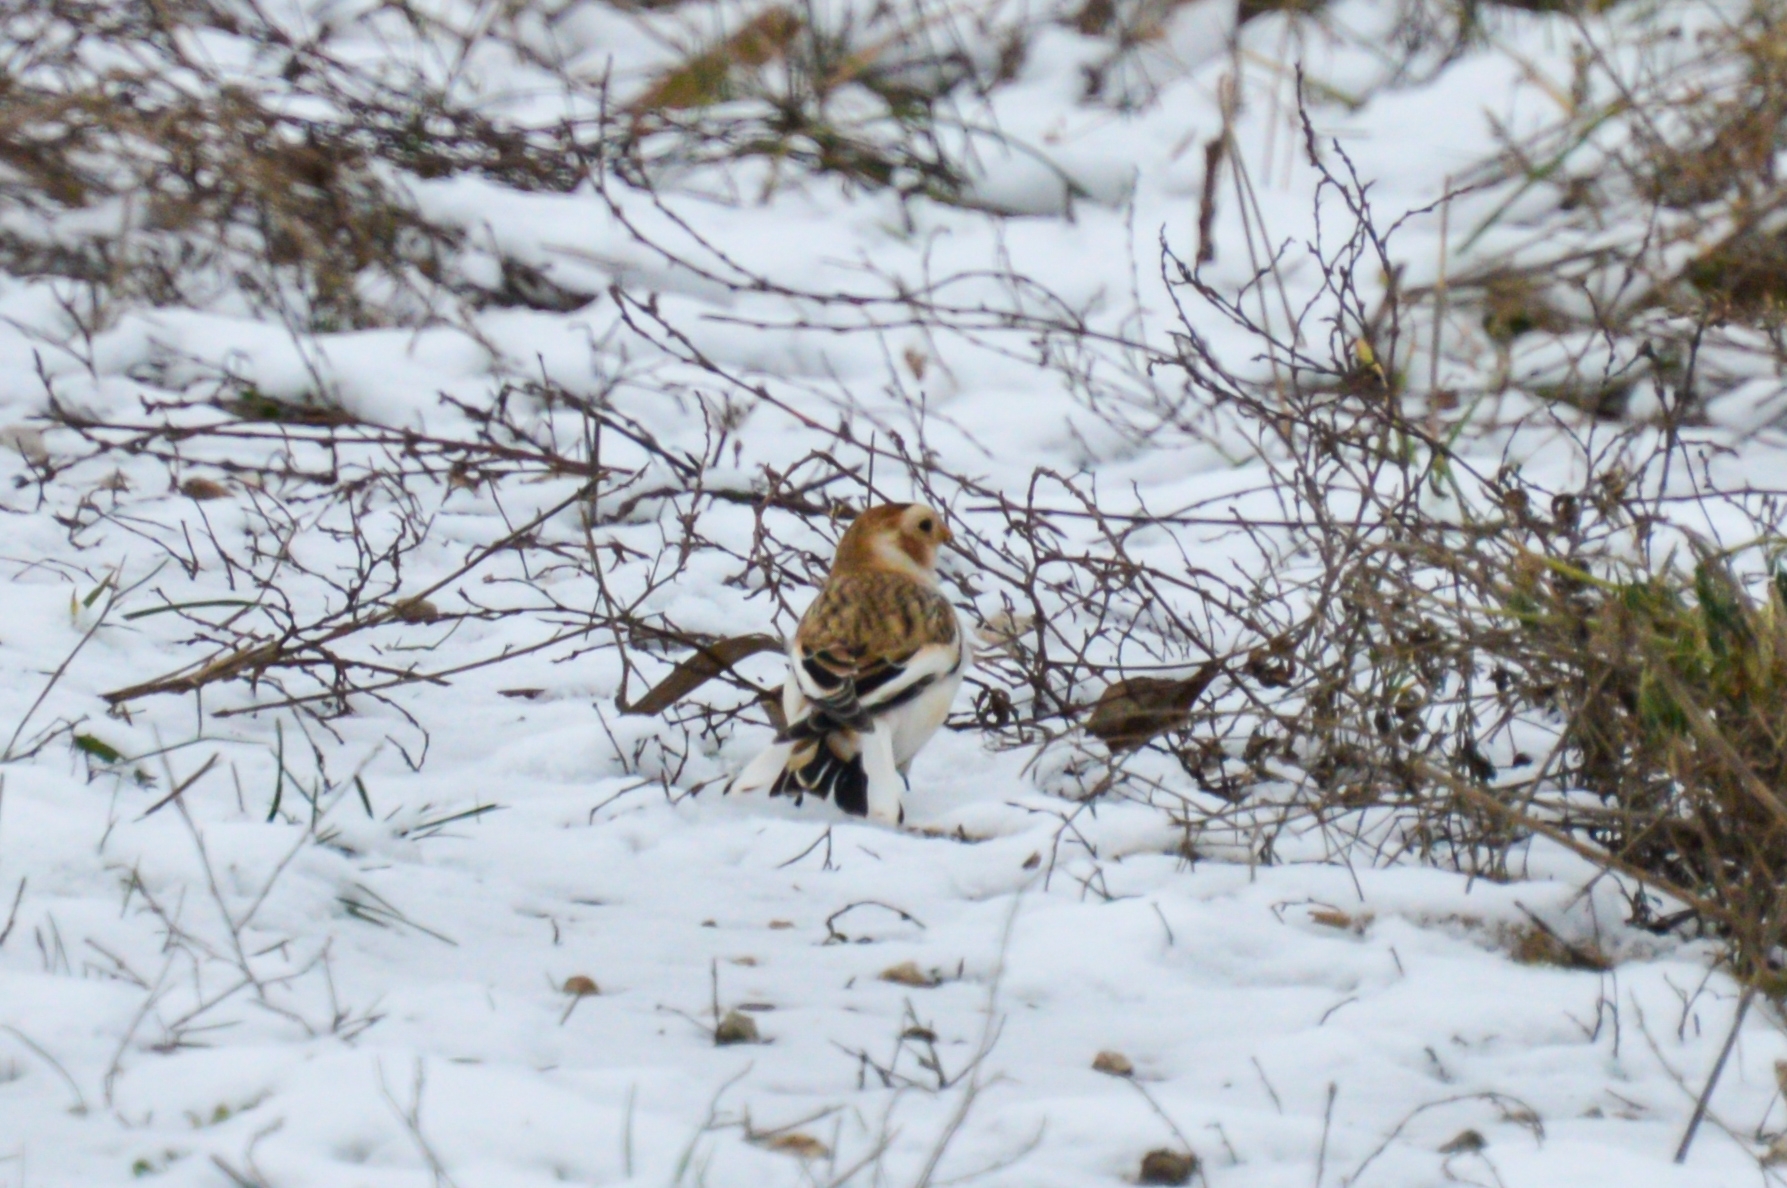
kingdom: Animalia
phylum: Chordata
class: Aves
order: Passeriformes
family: Calcariidae
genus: Plectrophenax
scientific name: Plectrophenax nivalis
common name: Snow bunting
